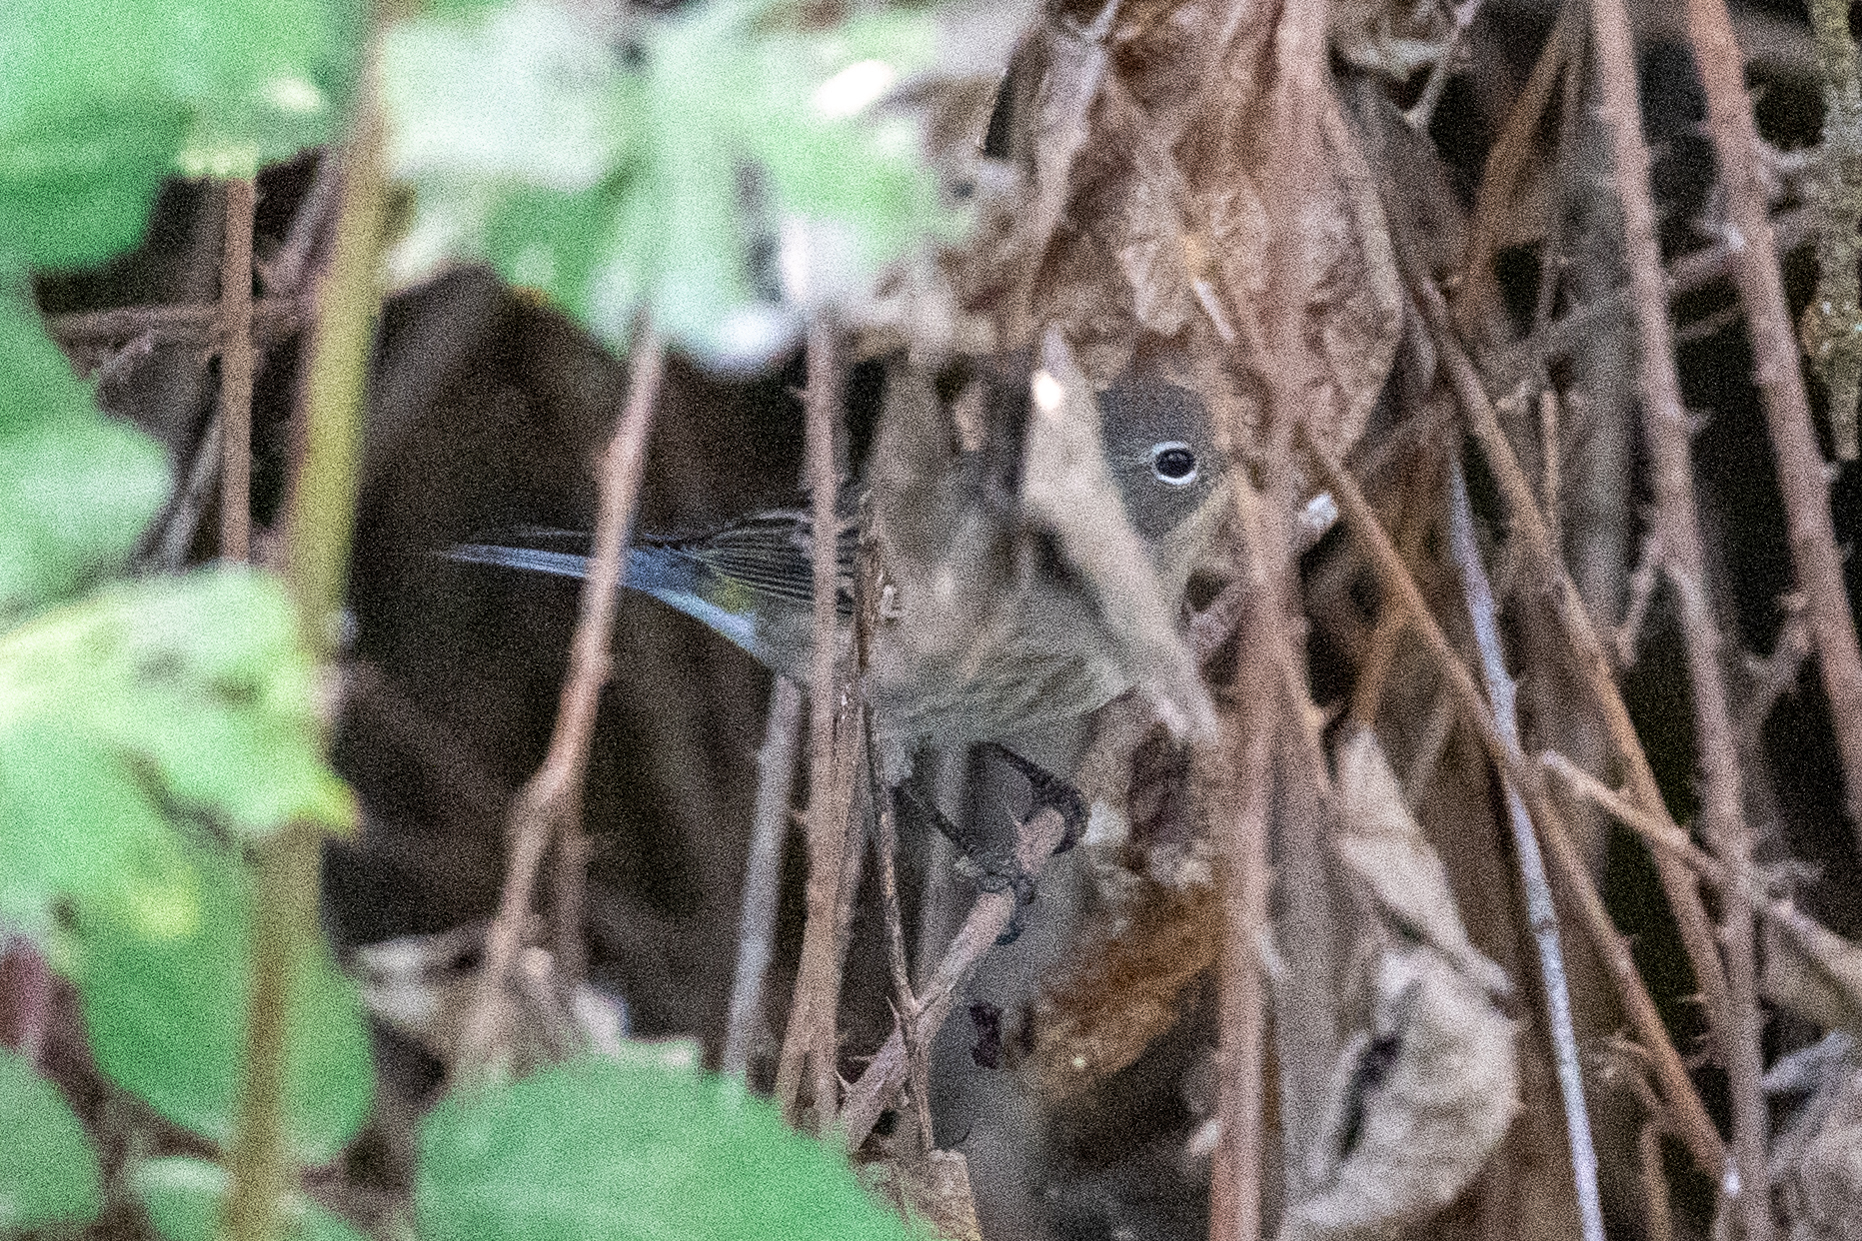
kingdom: Animalia
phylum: Chordata
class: Aves
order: Passeriformes
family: Parulidae
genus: Setophaga
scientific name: Setophaga coronata
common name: Myrtle warbler
